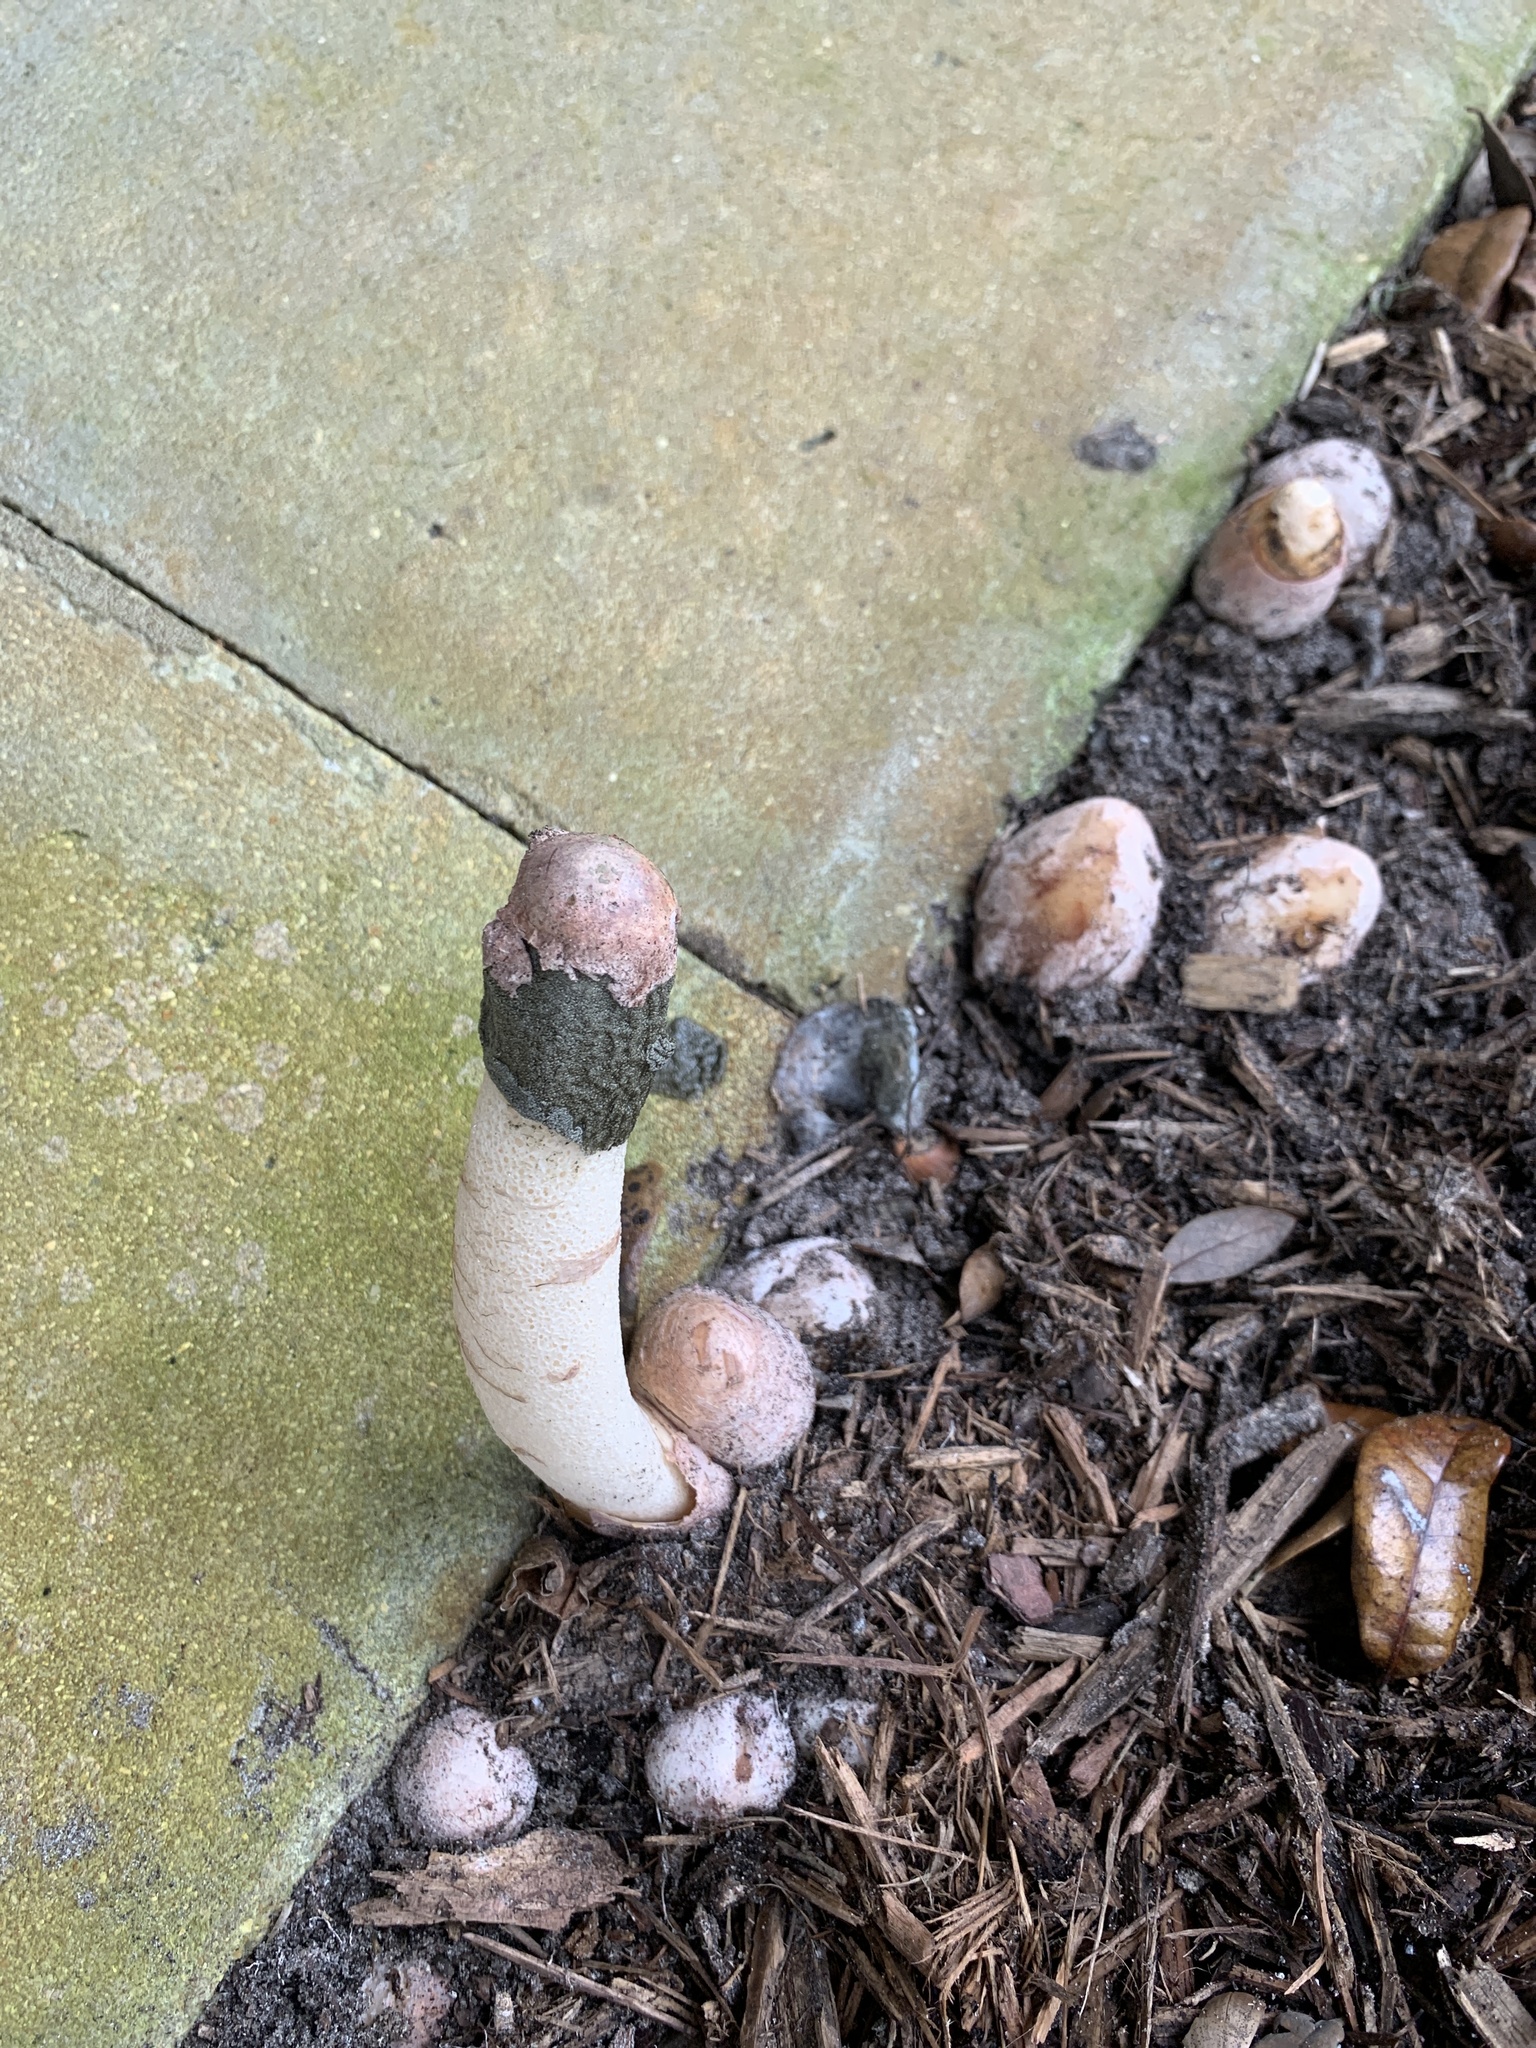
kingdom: Fungi
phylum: Basidiomycota
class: Agaricomycetes
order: Phallales
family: Phallaceae
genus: Phallus
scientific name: Phallus ravenelii
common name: Ravenel's stinkhorn
